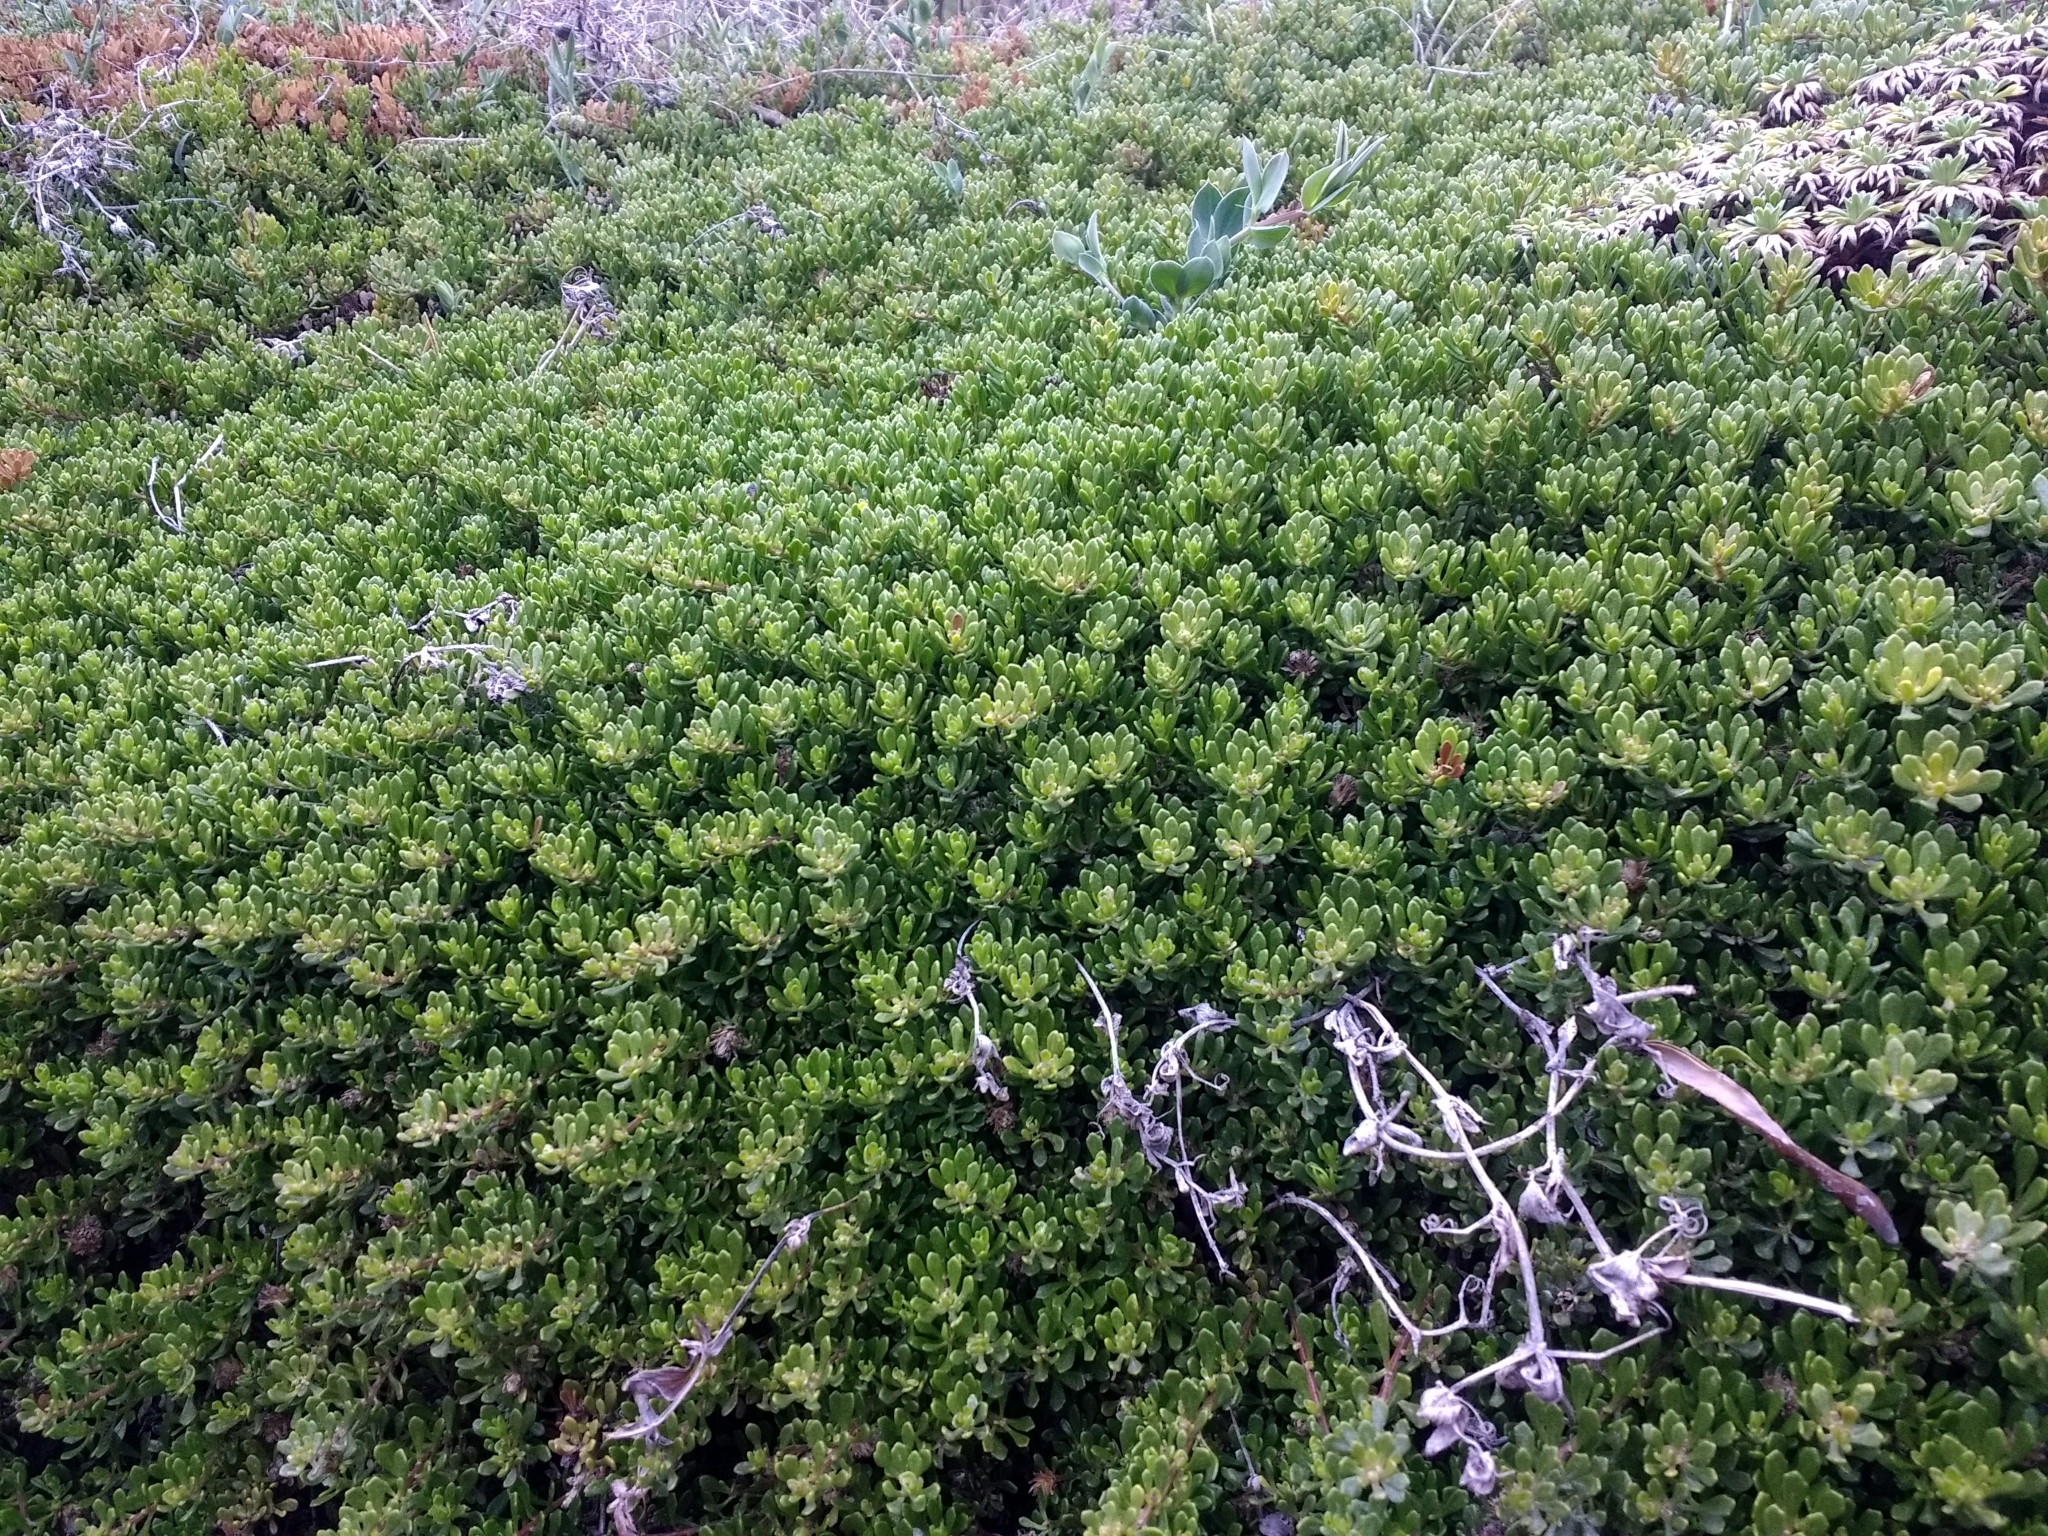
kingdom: Plantae
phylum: Tracheophyta
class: Magnoliopsida
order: Asterales
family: Asteraceae
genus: Baccharis
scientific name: Baccharis magellanica
